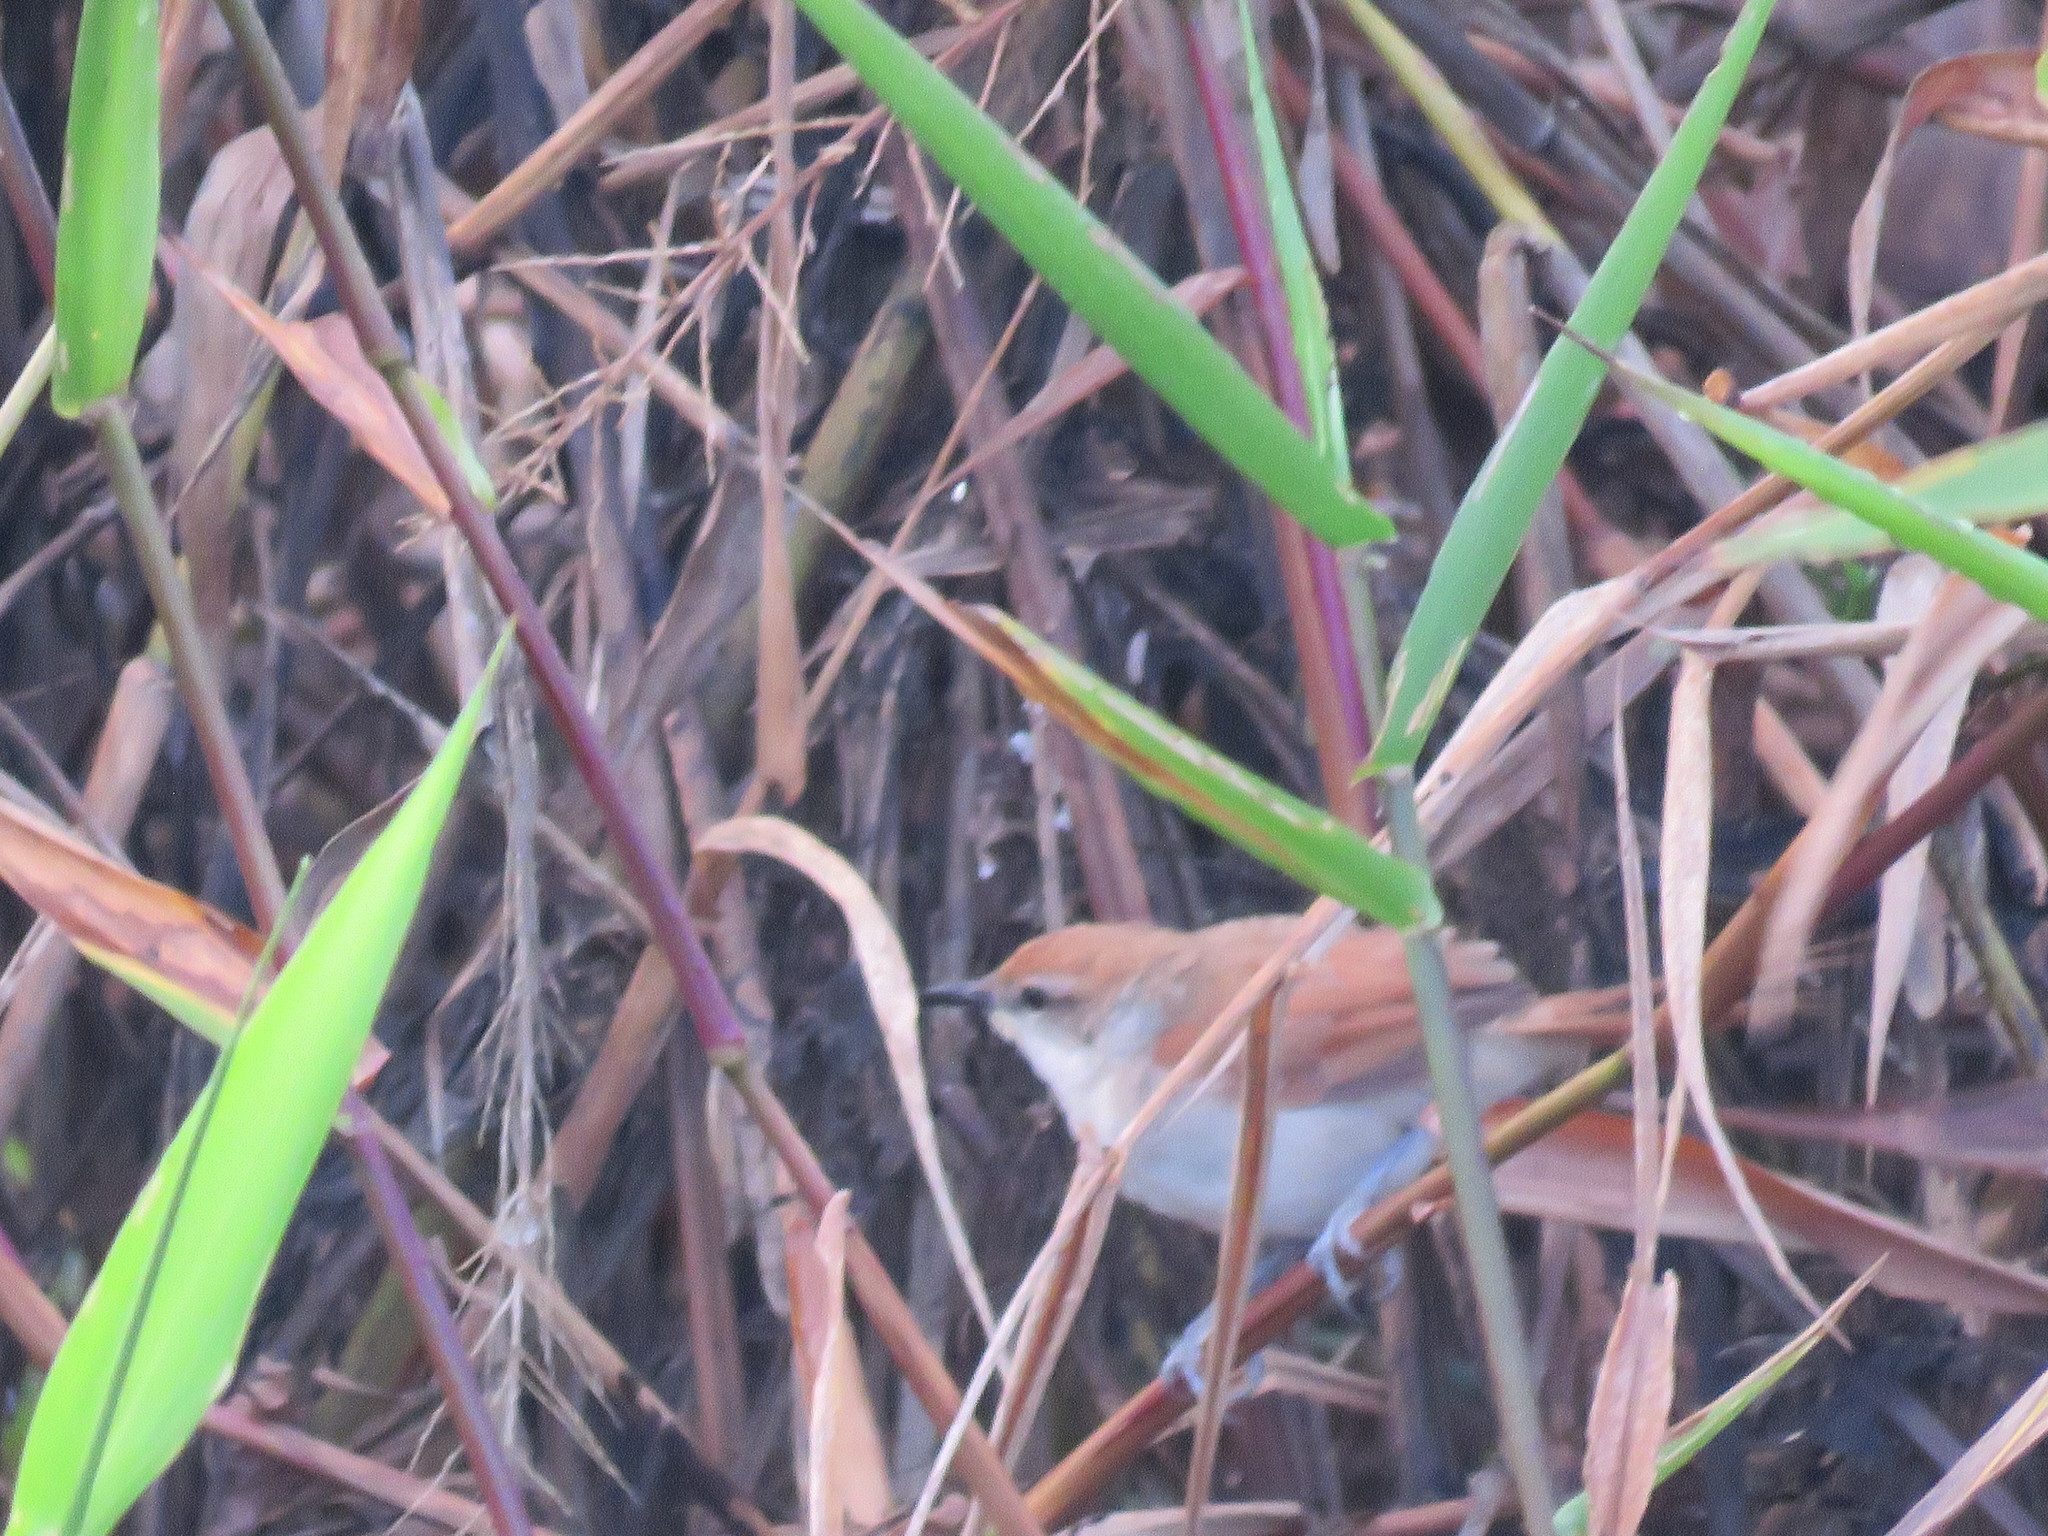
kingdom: Animalia
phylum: Chordata
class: Aves
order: Passeriformes
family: Furnariidae
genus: Certhiaxis
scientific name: Certhiaxis cinnamomeus
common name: Yellow-chinned spinetail
